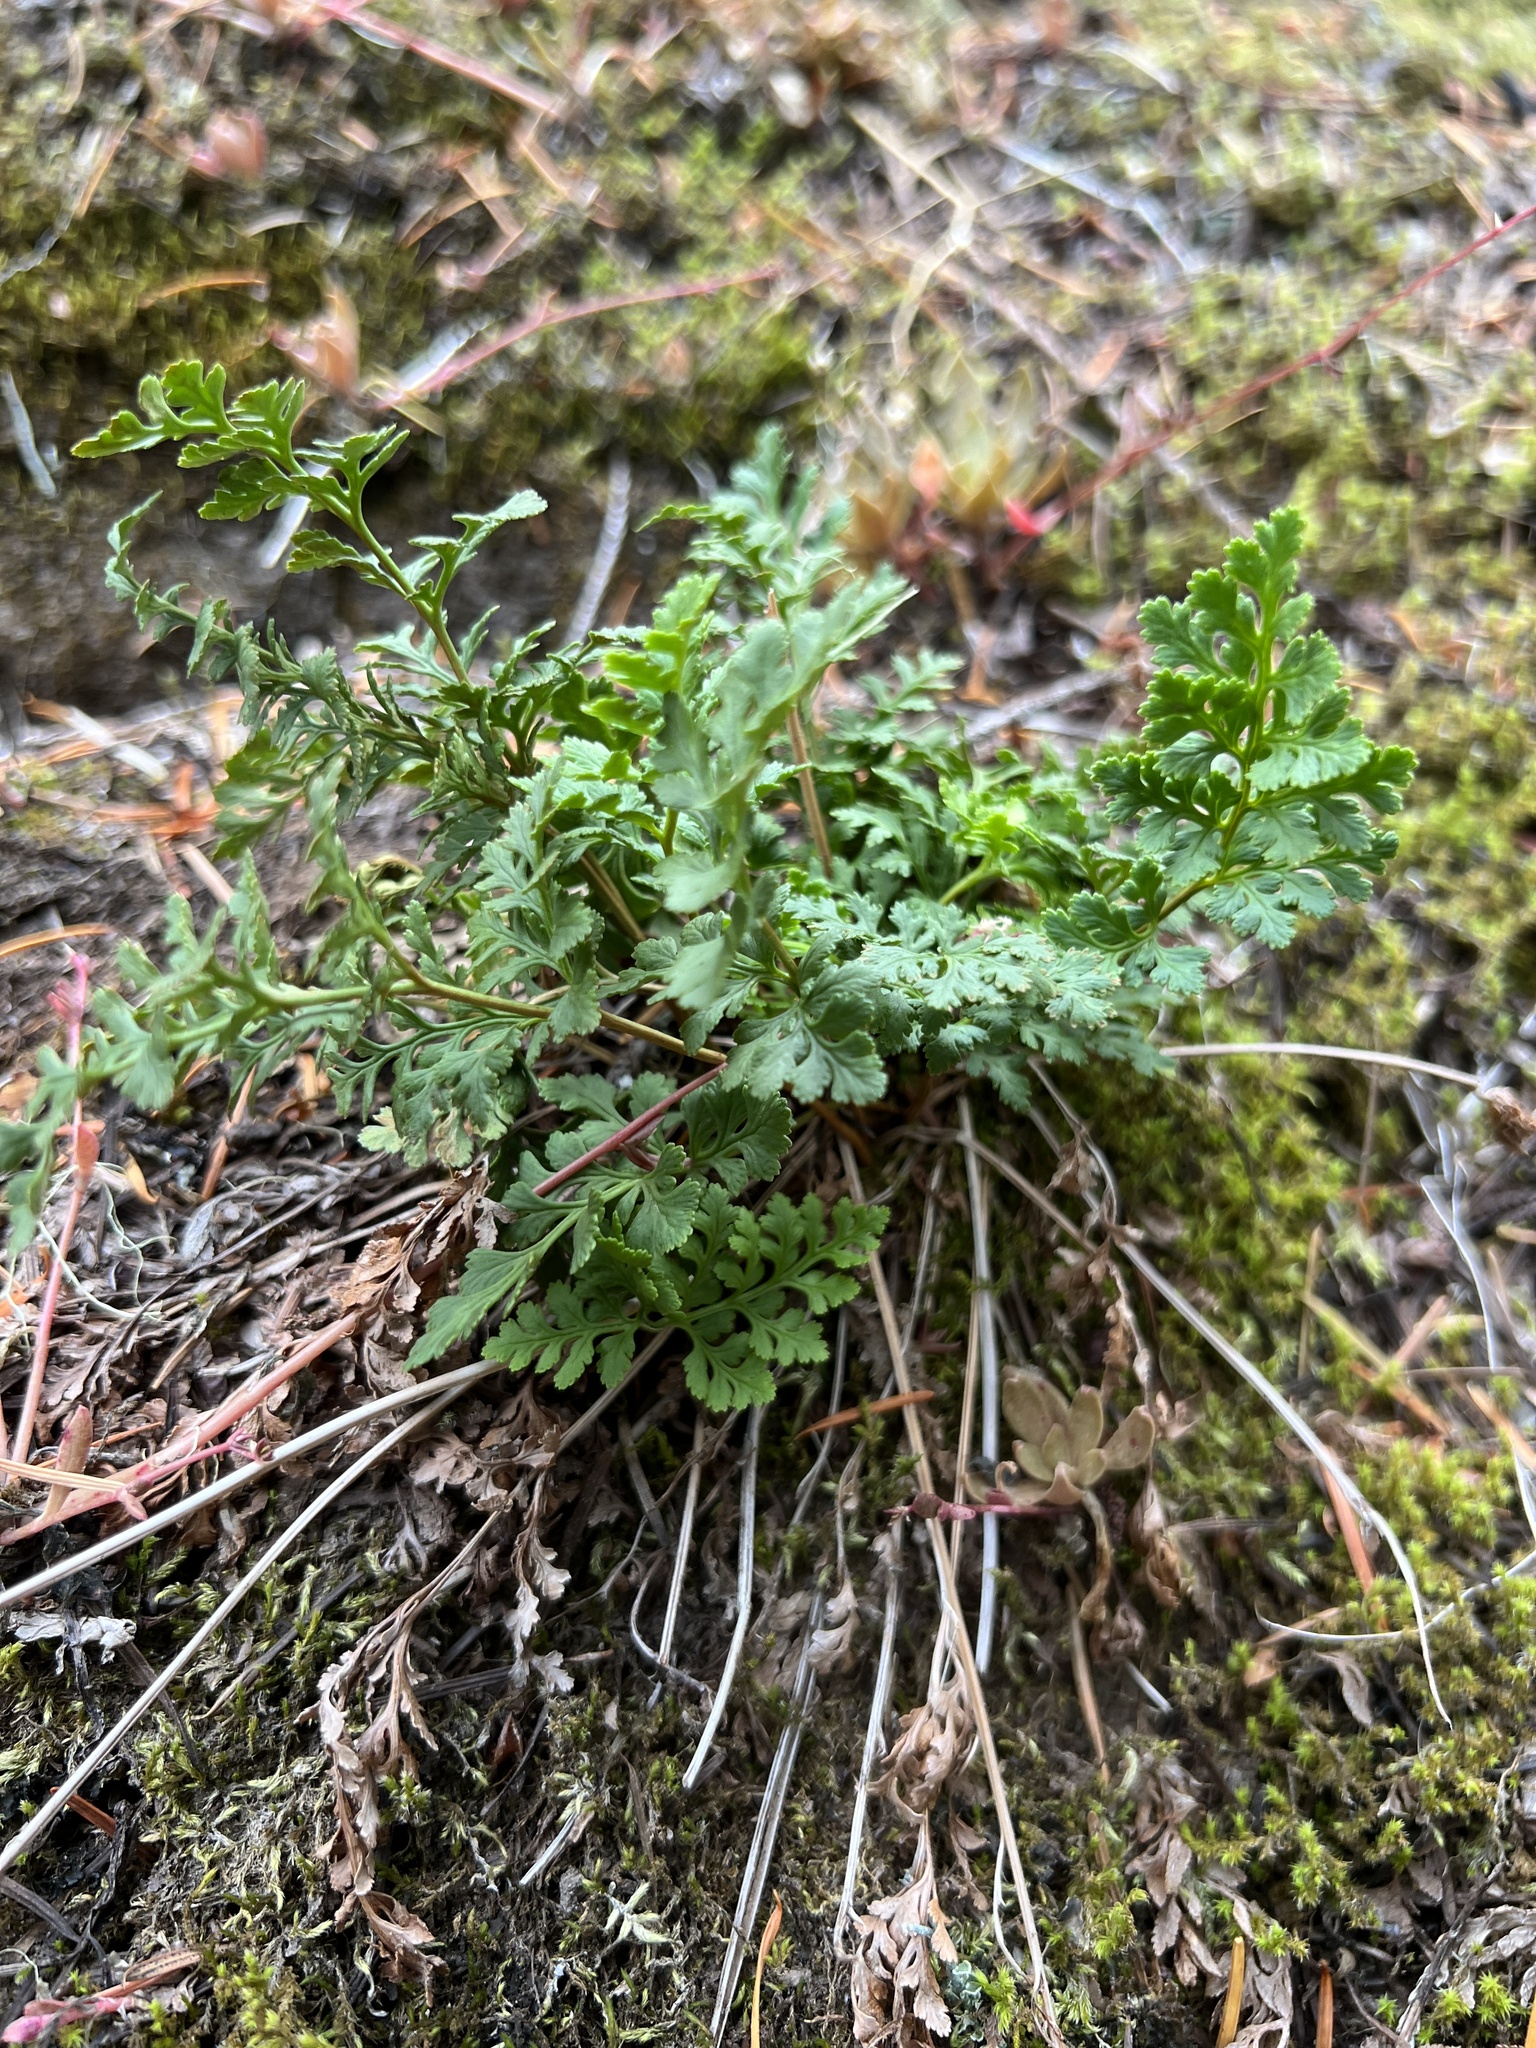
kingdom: Plantae
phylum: Tracheophyta
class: Polypodiopsida
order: Polypodiales
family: Pteridaceae
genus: Cryptogramma
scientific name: Cryptogramma acrostichoides
